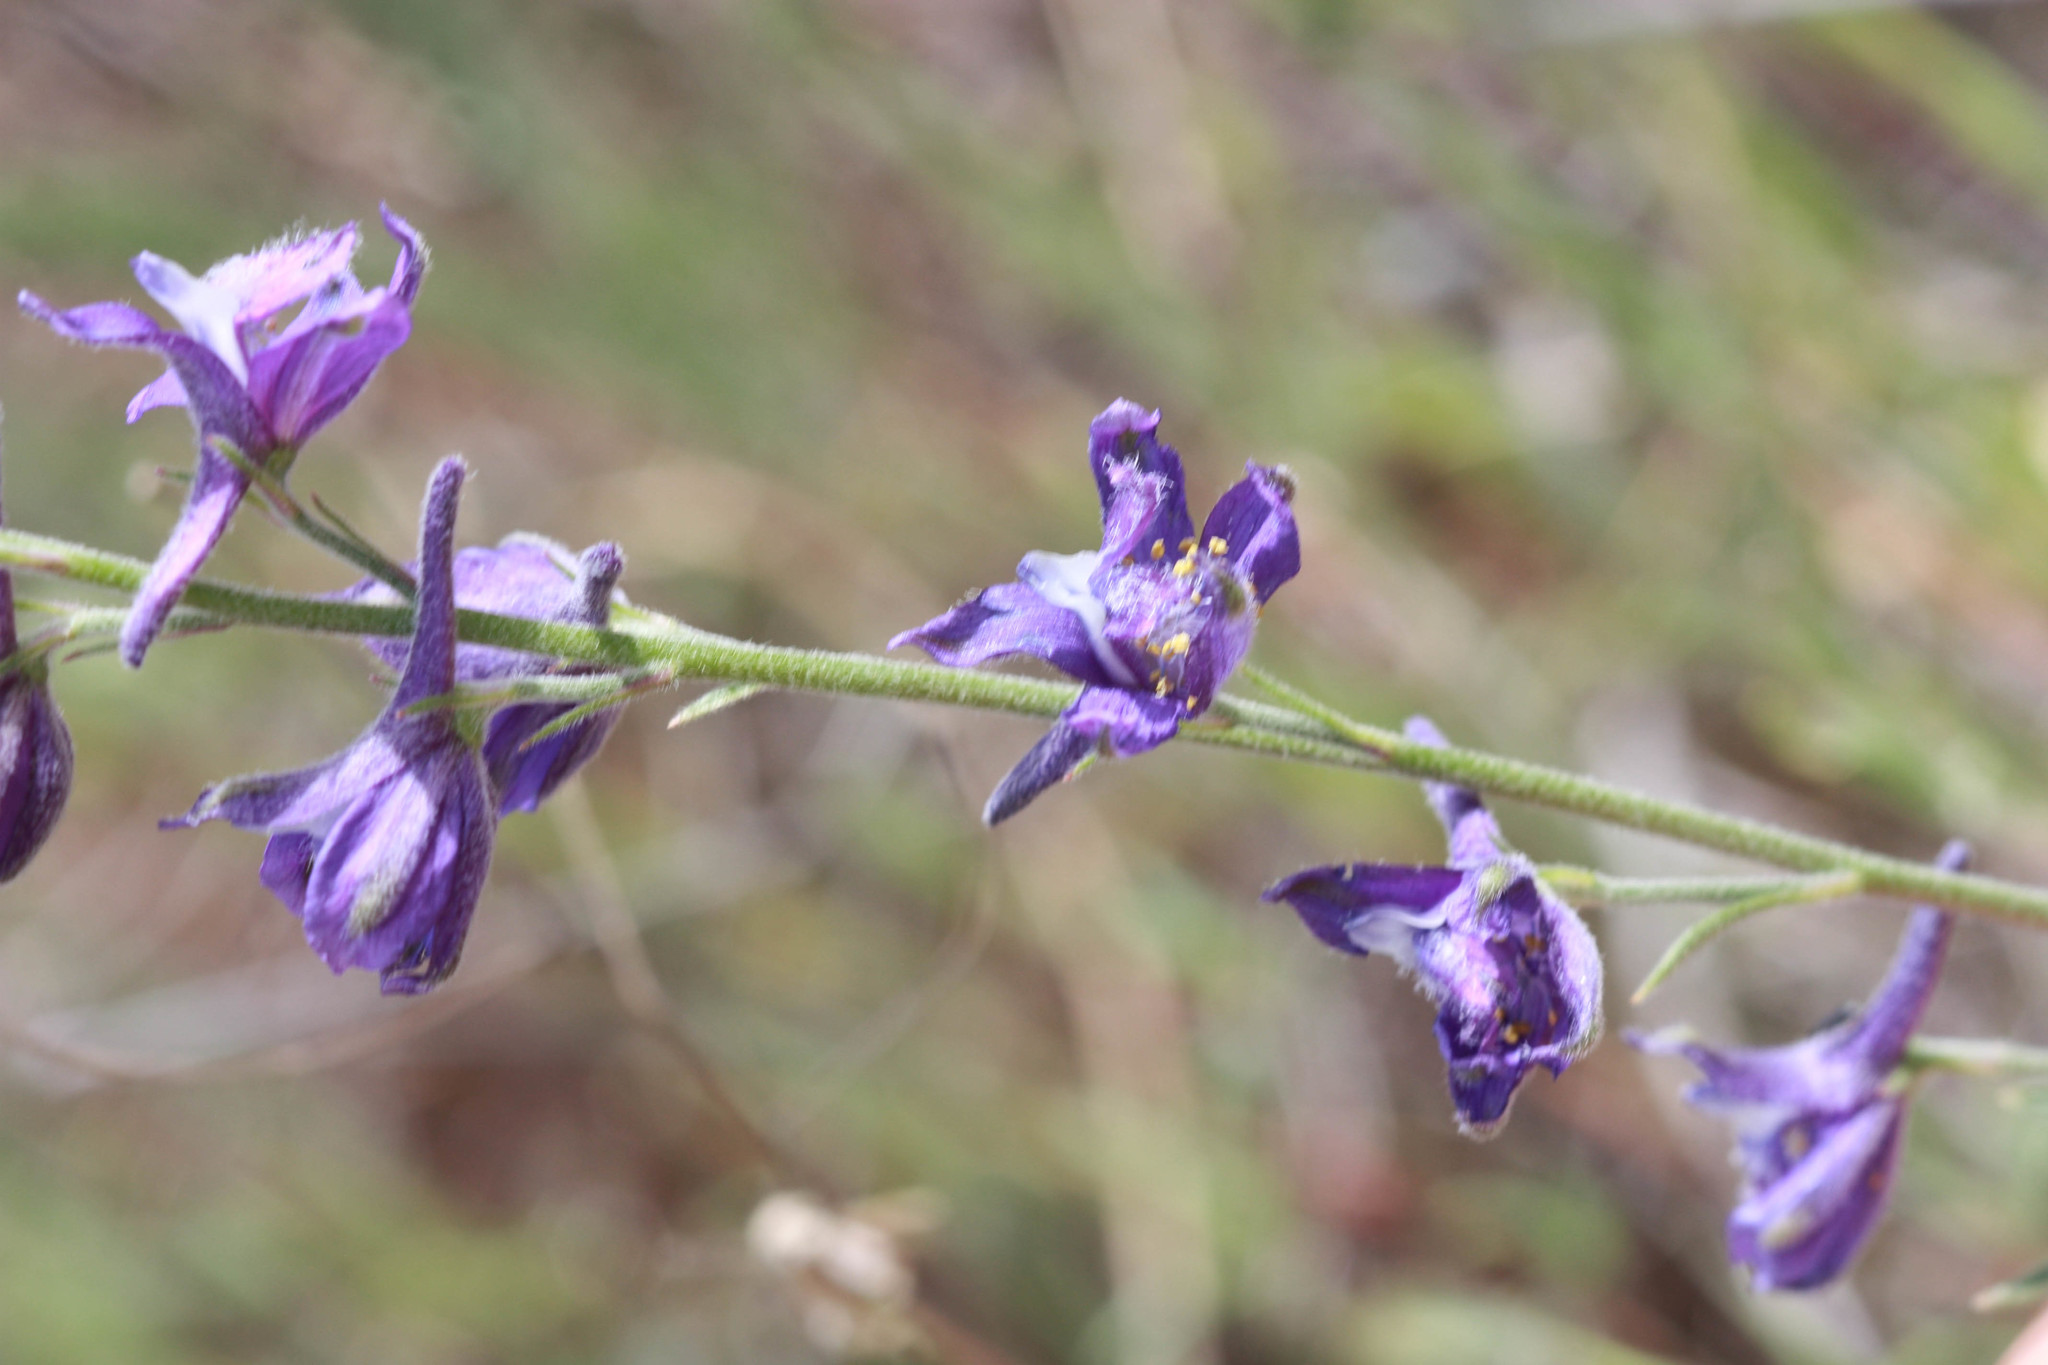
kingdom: Plantae
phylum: Tracheophyta
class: Magnoliopsida
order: Ranunculales
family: Ranunculaceae
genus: Delphinium
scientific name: Delphinium hesperium
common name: Western larkspur
